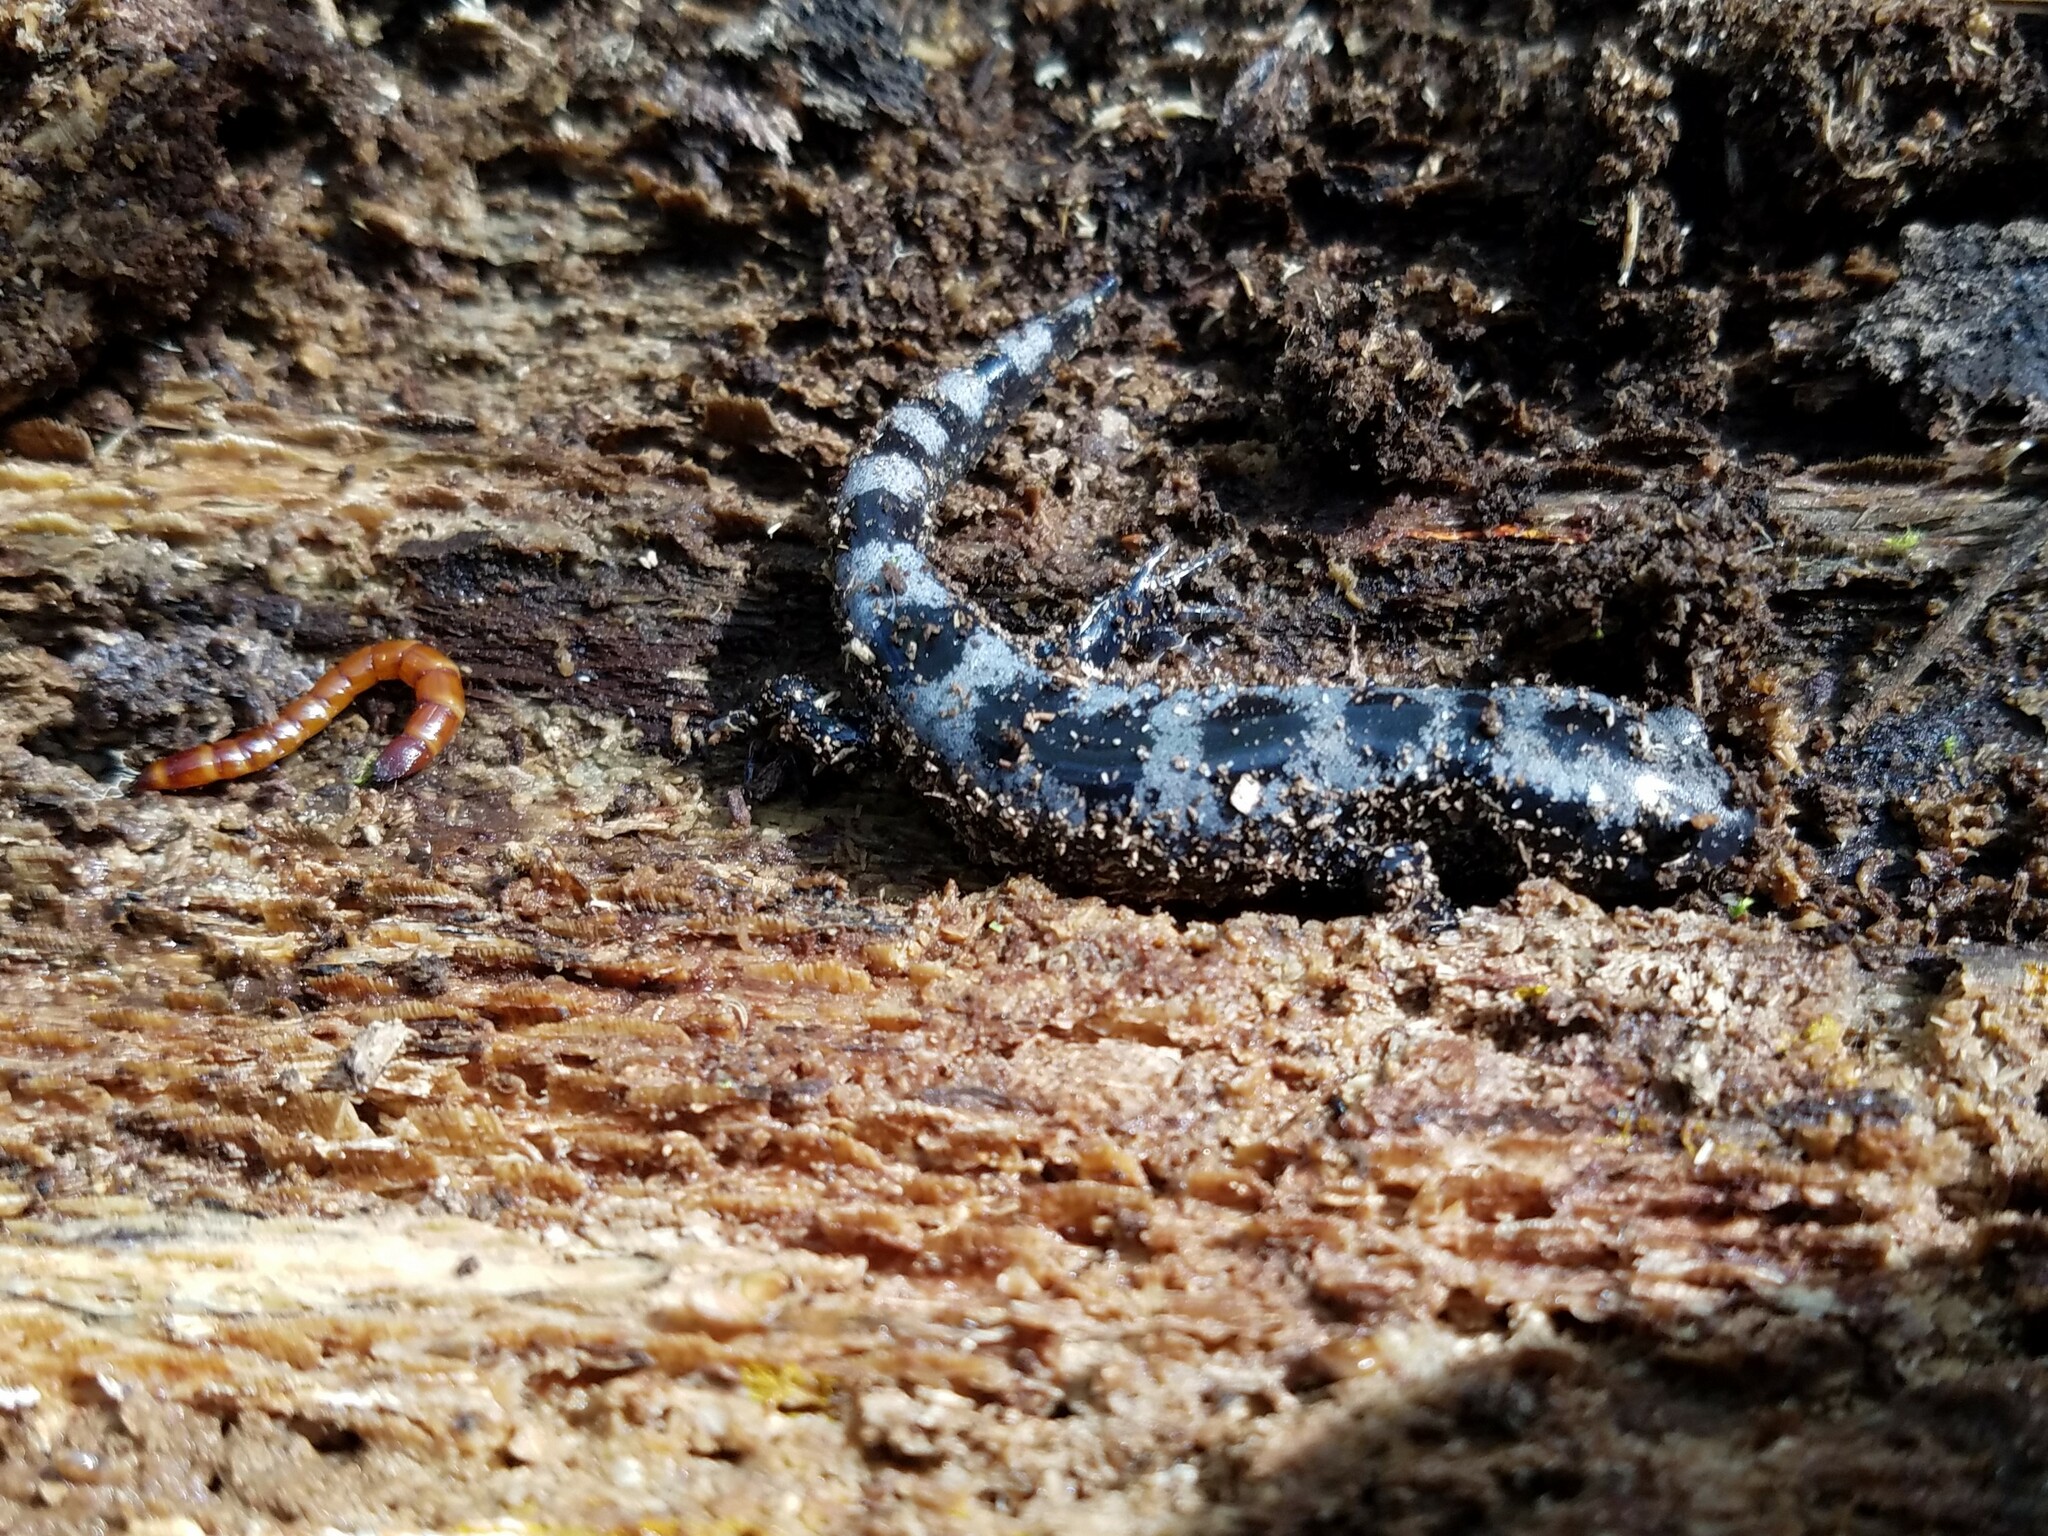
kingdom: Animalia
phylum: Chordata
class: Amphibia
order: Caudata
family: Ambystomatidae
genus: Ambystoma
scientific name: Ambystoma opacum
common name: Marbled salamander
